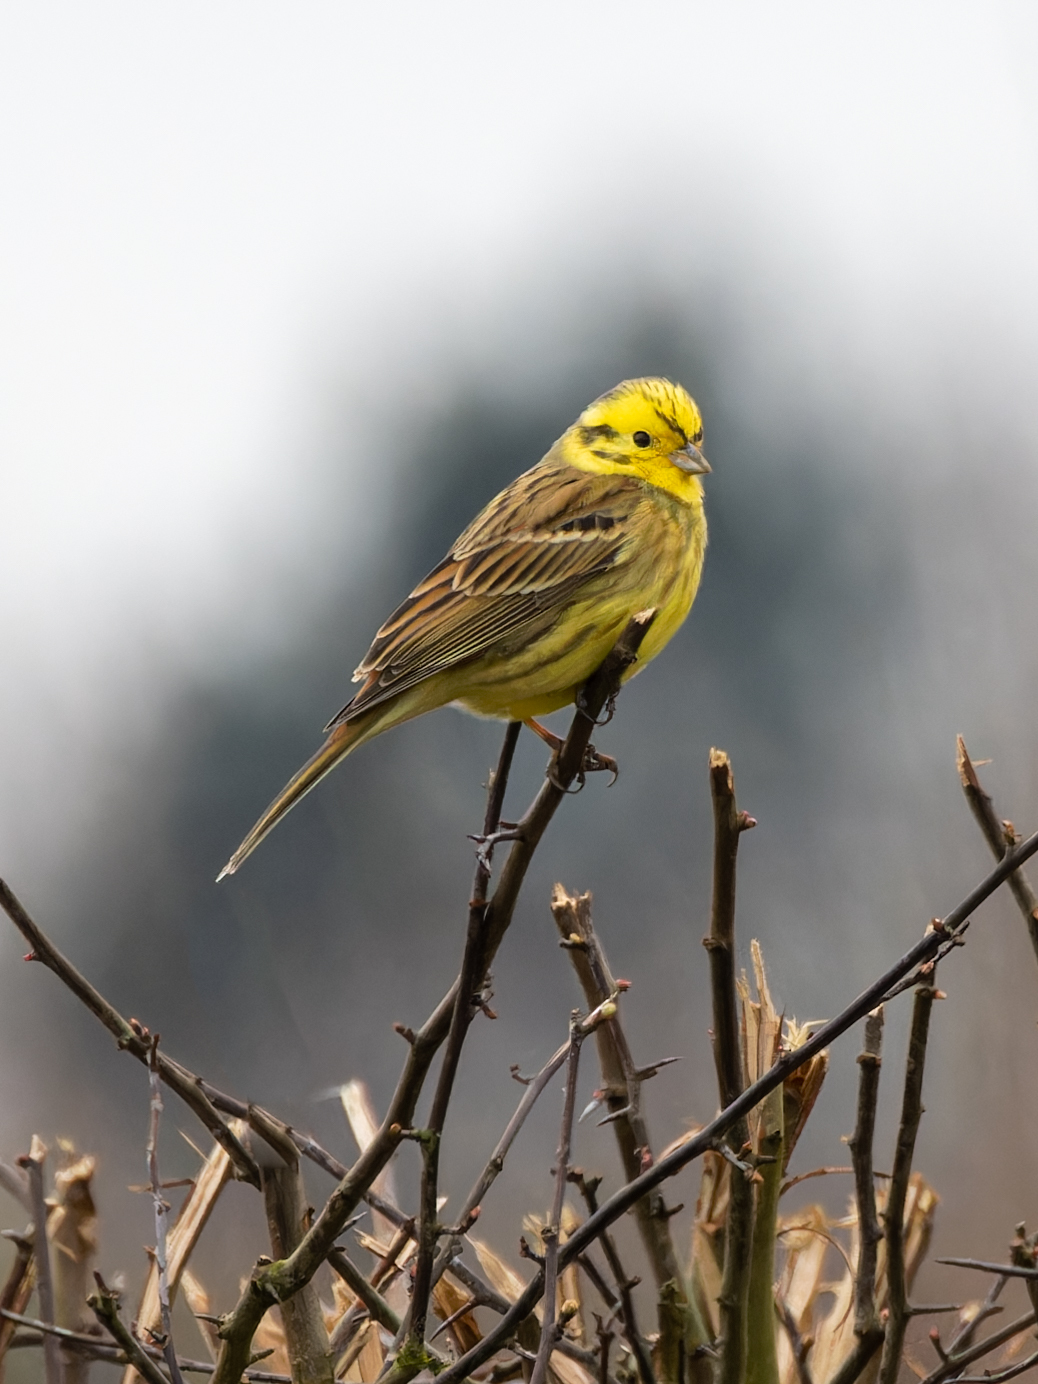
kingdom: Animalia
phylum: Chordata
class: Aves
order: Passeriformes
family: Emberizidae
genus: Emberiza
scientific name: Emberiza citrinella
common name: Yellowhammer
